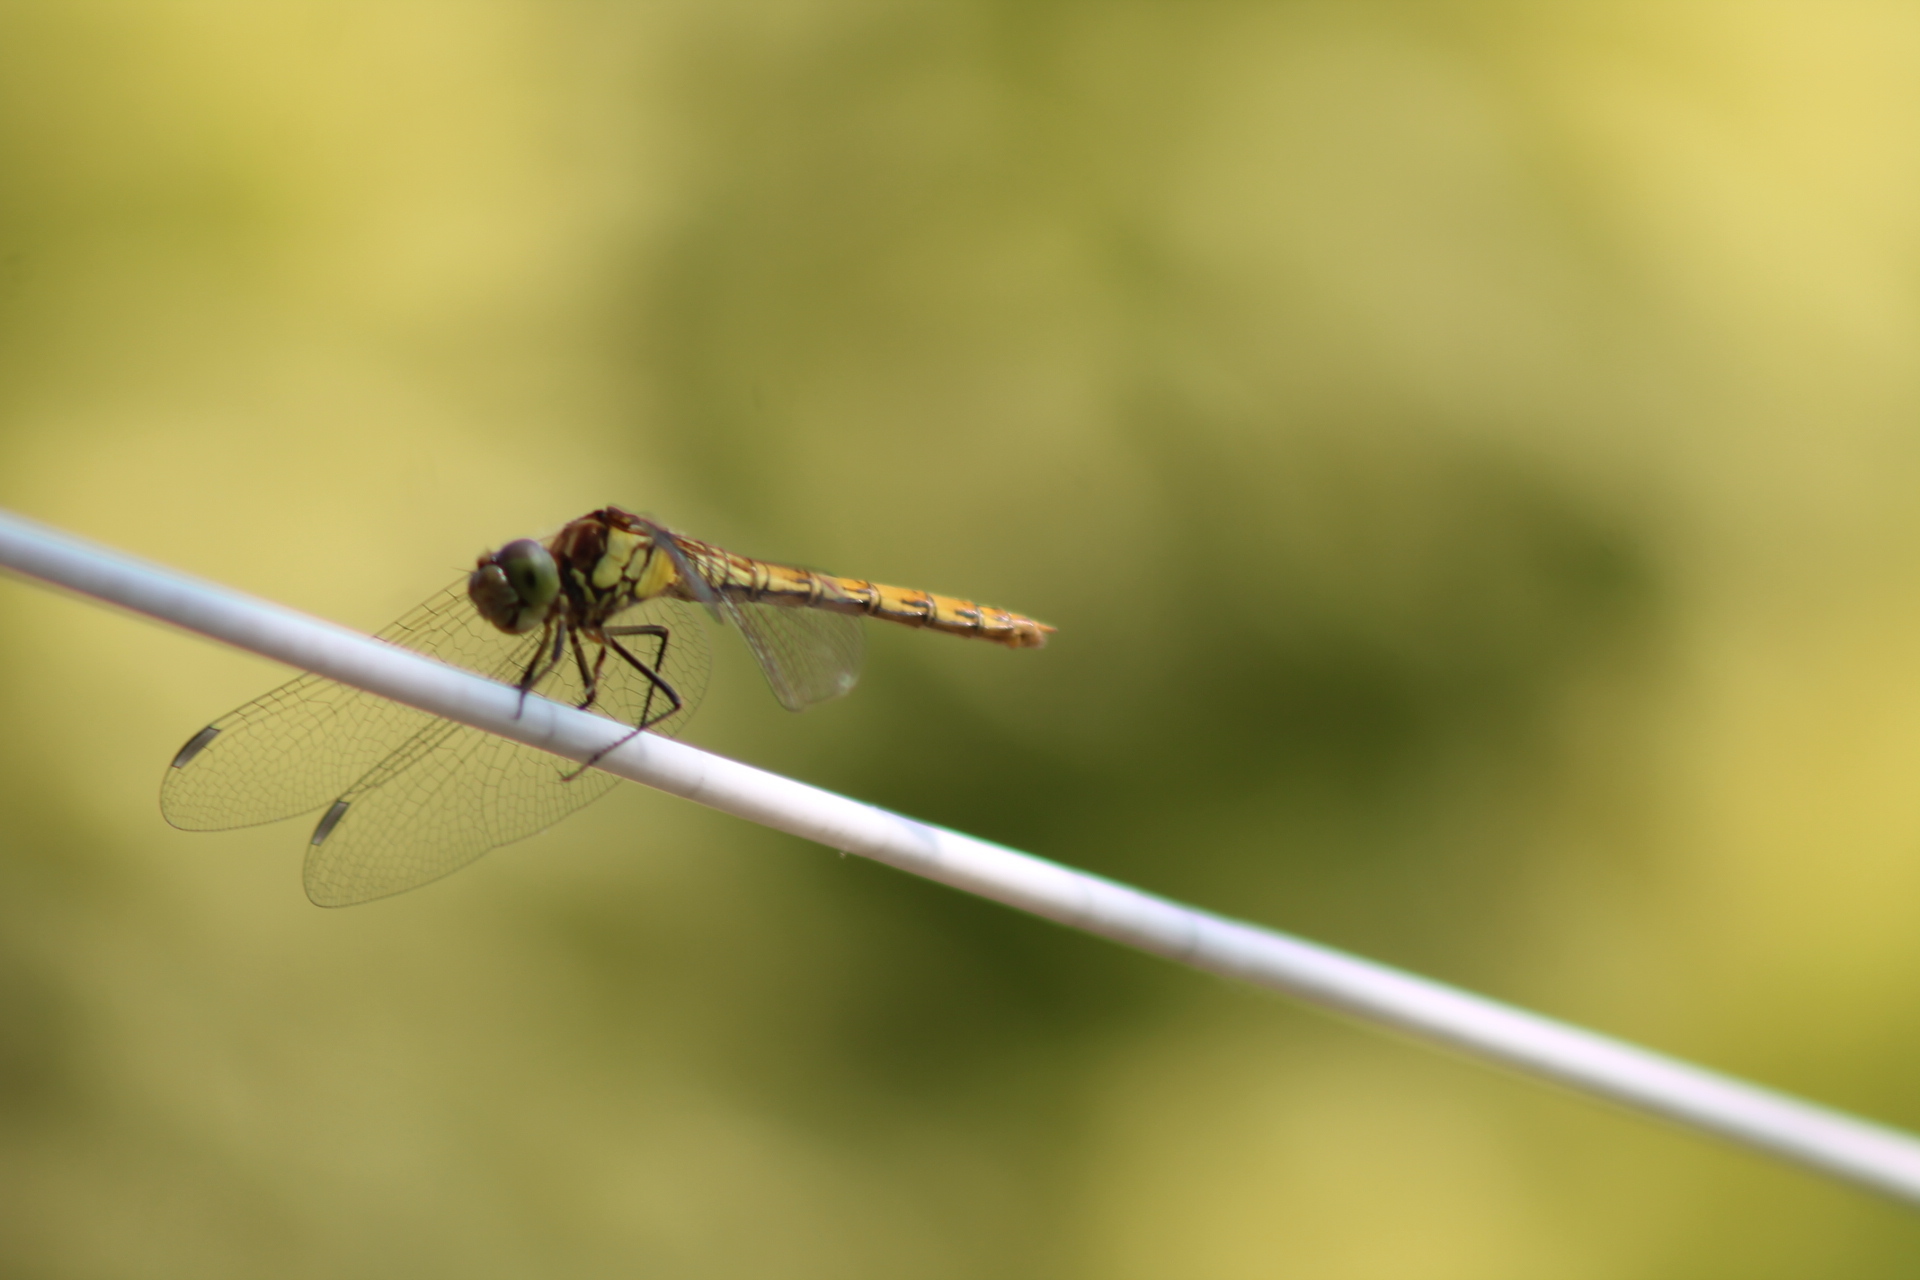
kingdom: Animalia
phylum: Arthropoda
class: Insecta
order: Odonata
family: Libellulidae
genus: Sympetrum
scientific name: Sympetrum striolatum
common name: Common darter
